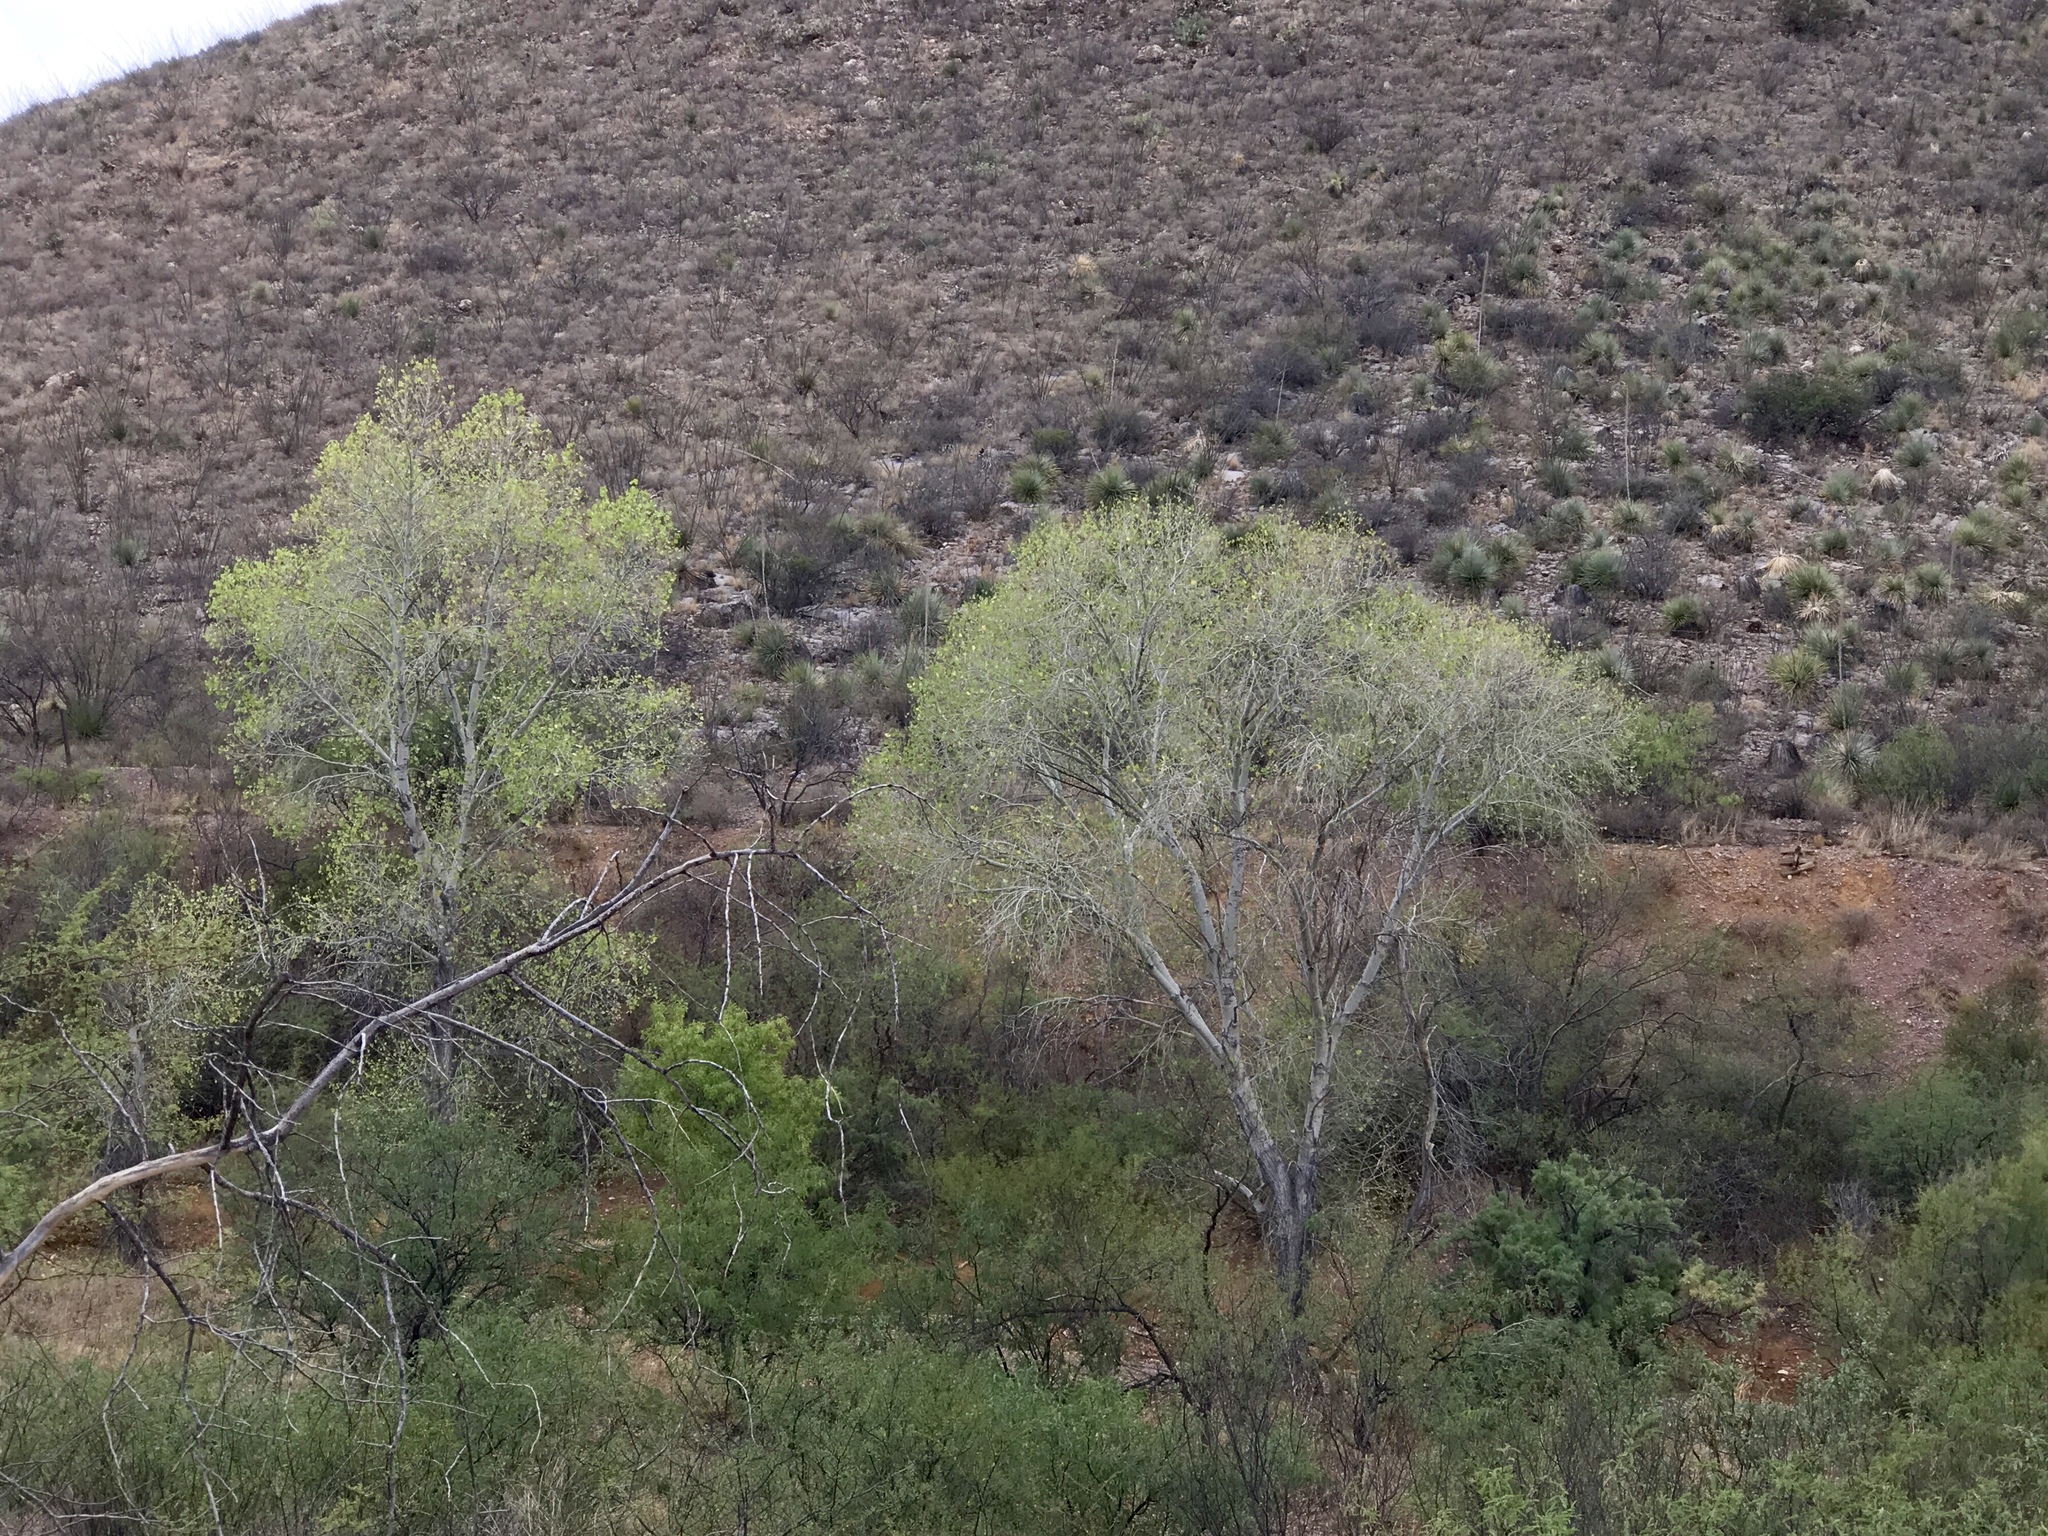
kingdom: Plantae
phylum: Tracheophyta
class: Magnoliopsida
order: Malpighiales
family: Salicaceae
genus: Populus
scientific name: Populus fremontii
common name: Fremont's cottonwood
